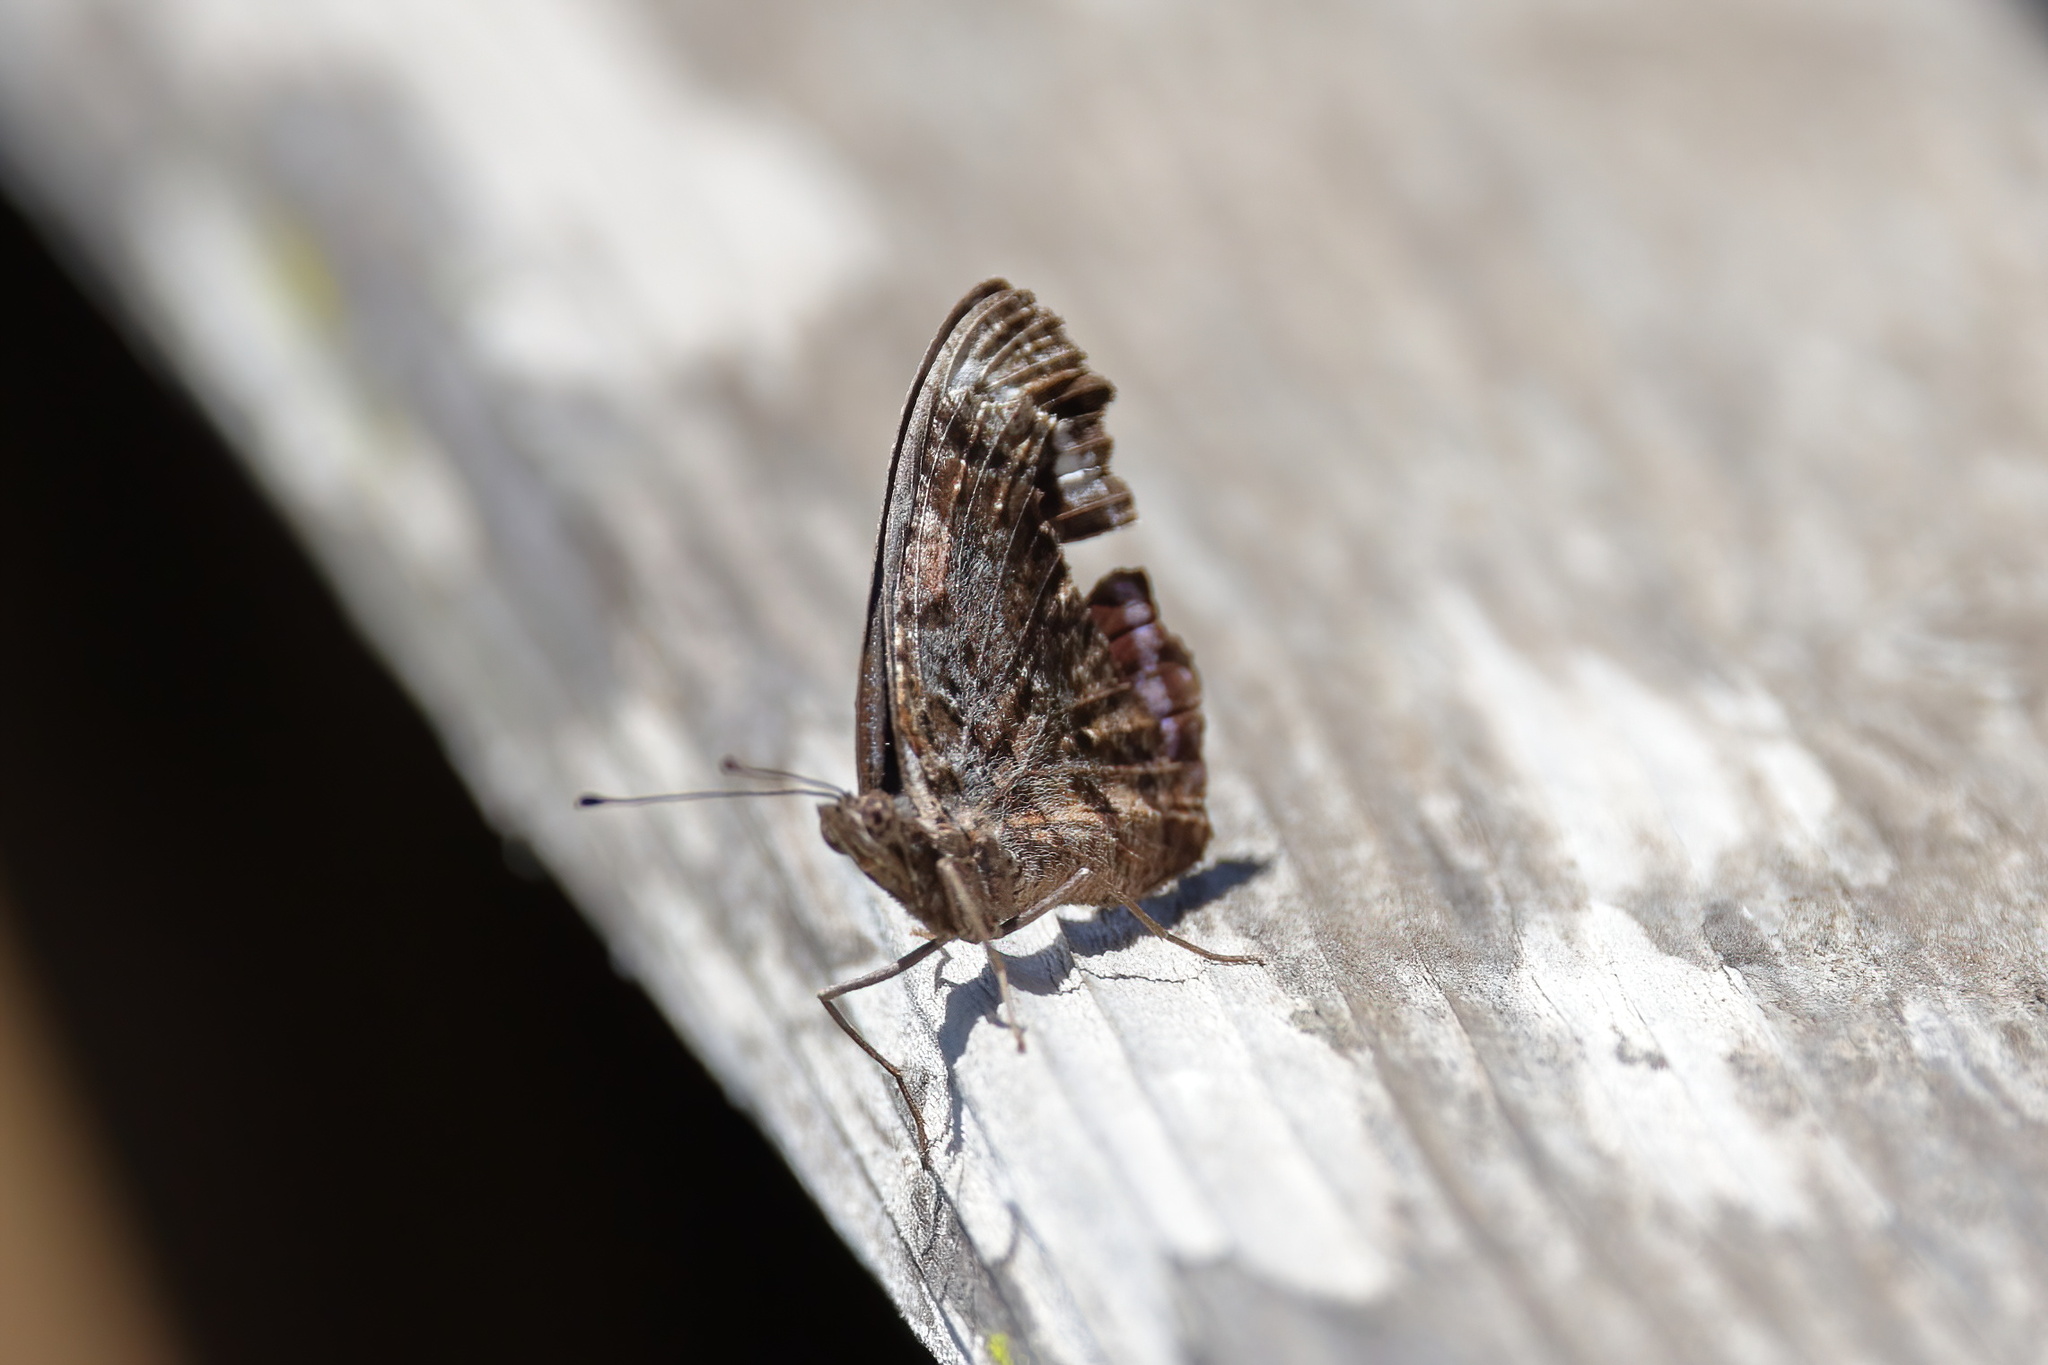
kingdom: Animalia
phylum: Arthropoda
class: Insecta
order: Lepidoptera
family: Nymphalidae
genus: Myscelia
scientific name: Myscelia ethusa
